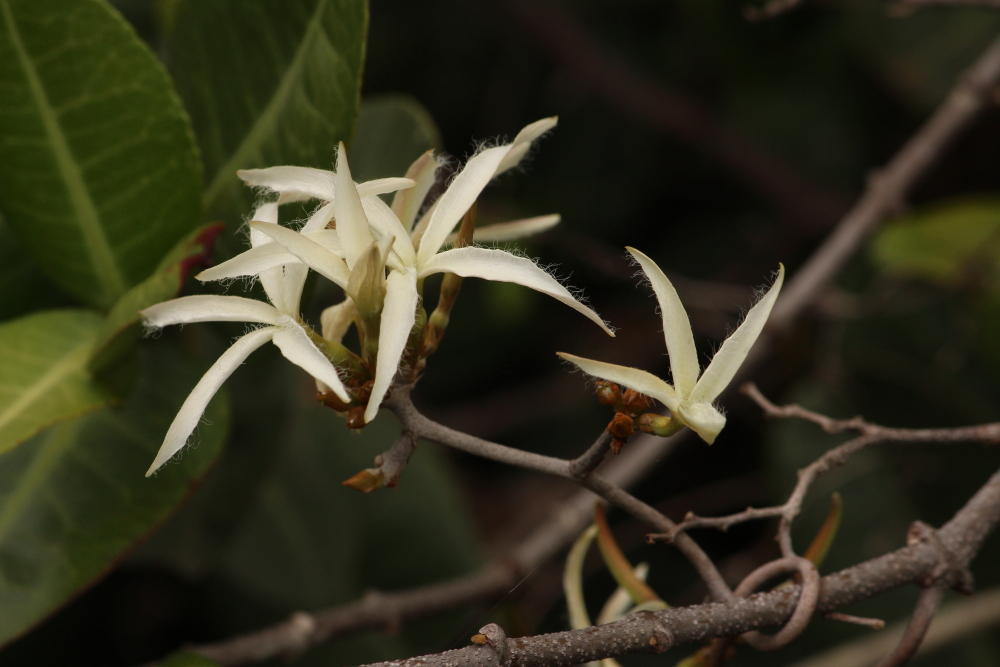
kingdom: Plantae
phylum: Tracheophyta
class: Magnoliopsida
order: Gentianales
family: Apocynaceae
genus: Ancylobothrys
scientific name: Ancylobothrys petersiana
